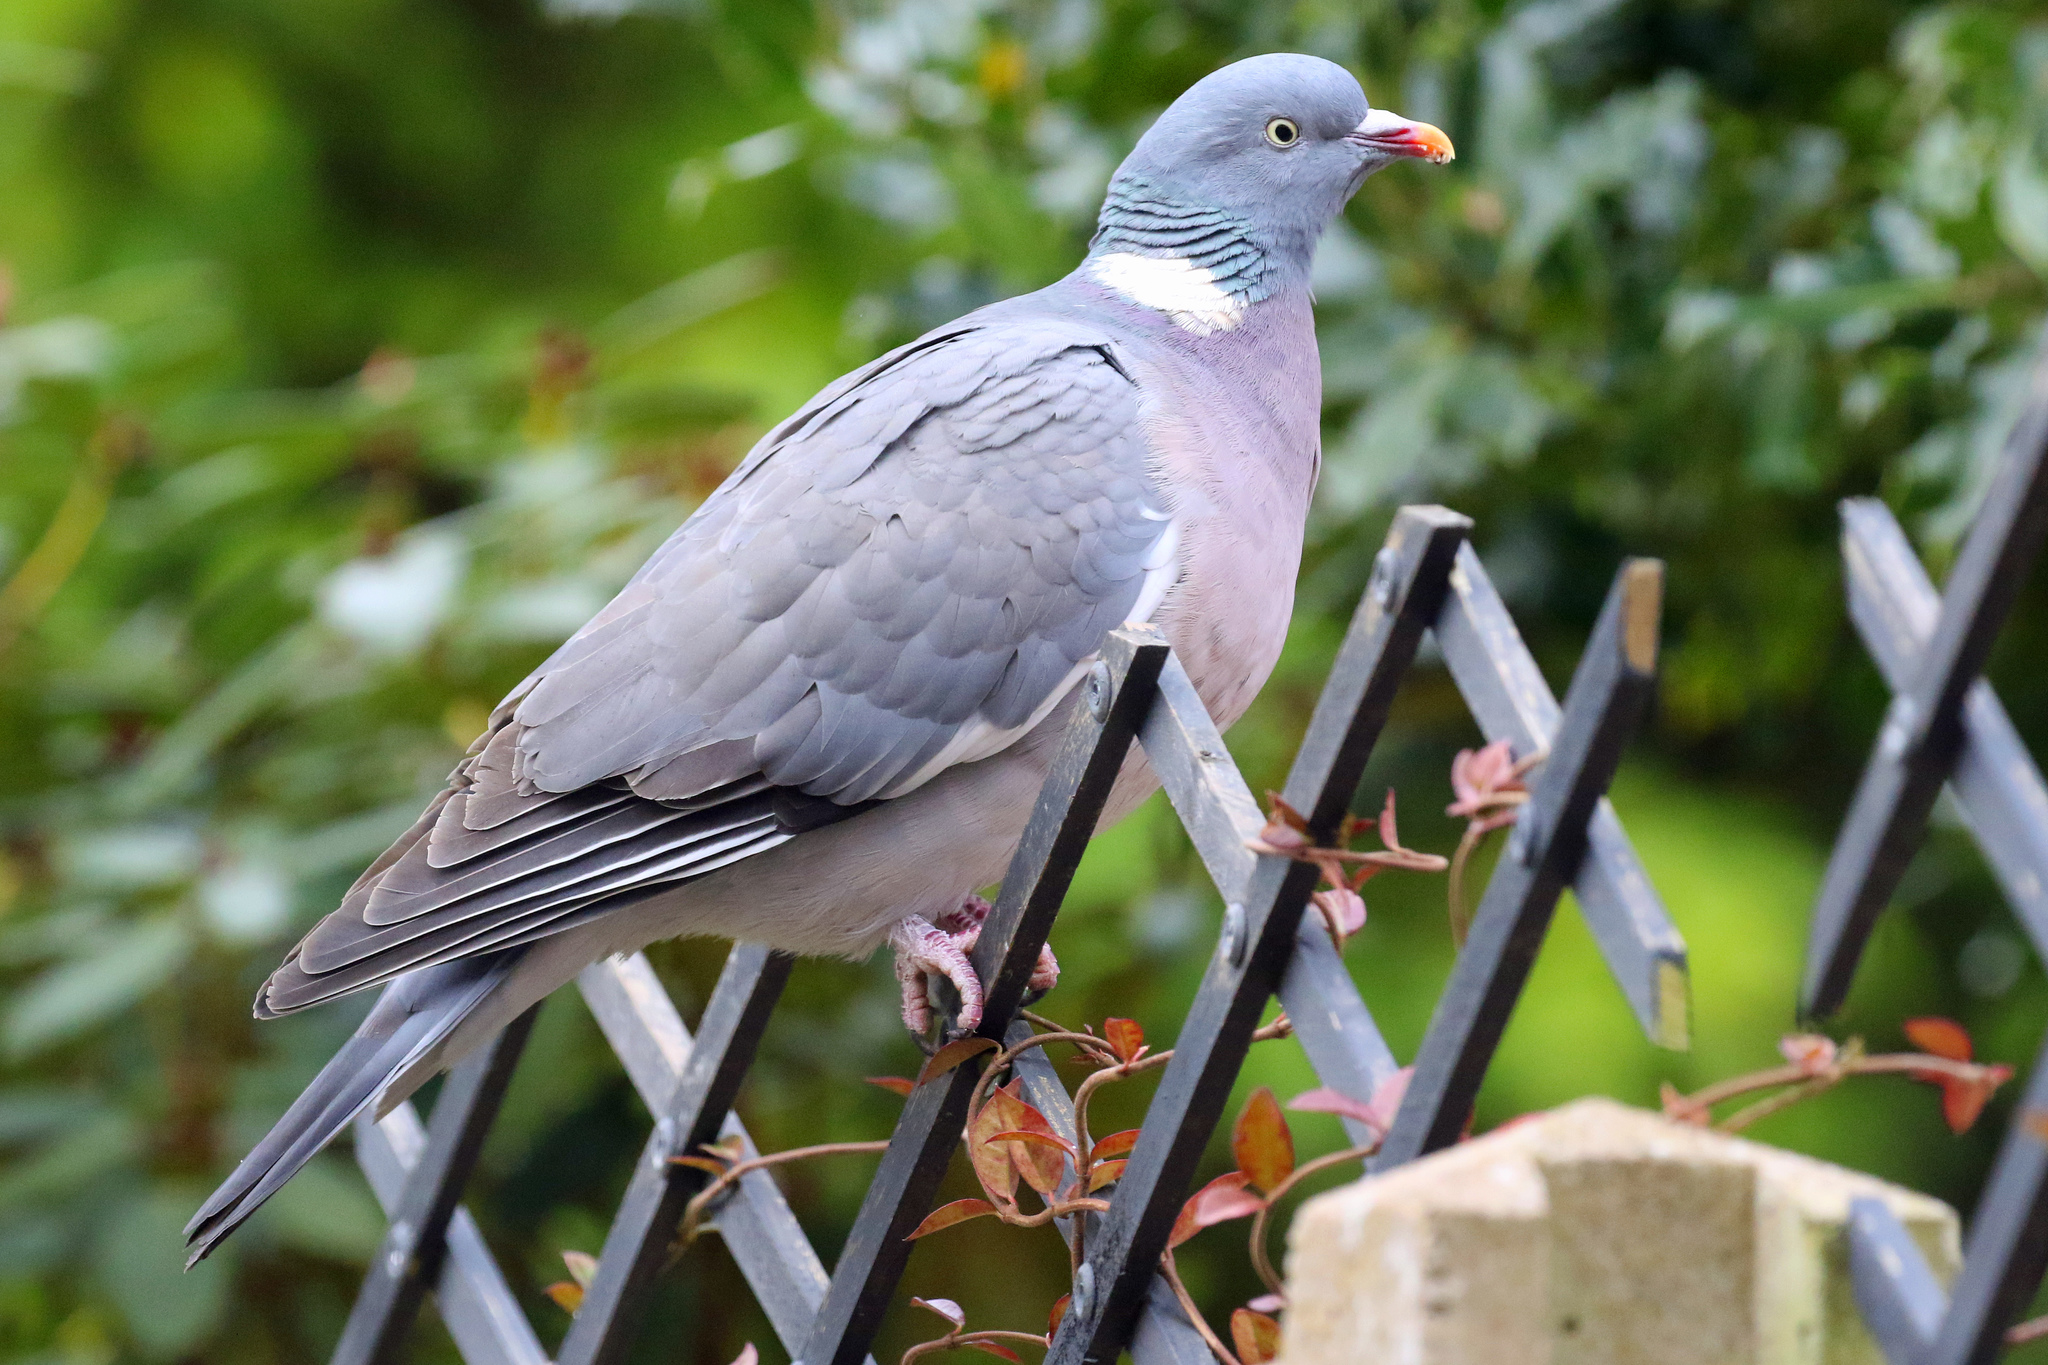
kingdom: Animalia
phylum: Chordata
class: Aves
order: Columbiformes
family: Columbidae
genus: Columba
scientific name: Columba palumbus
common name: Common wood pigeon
